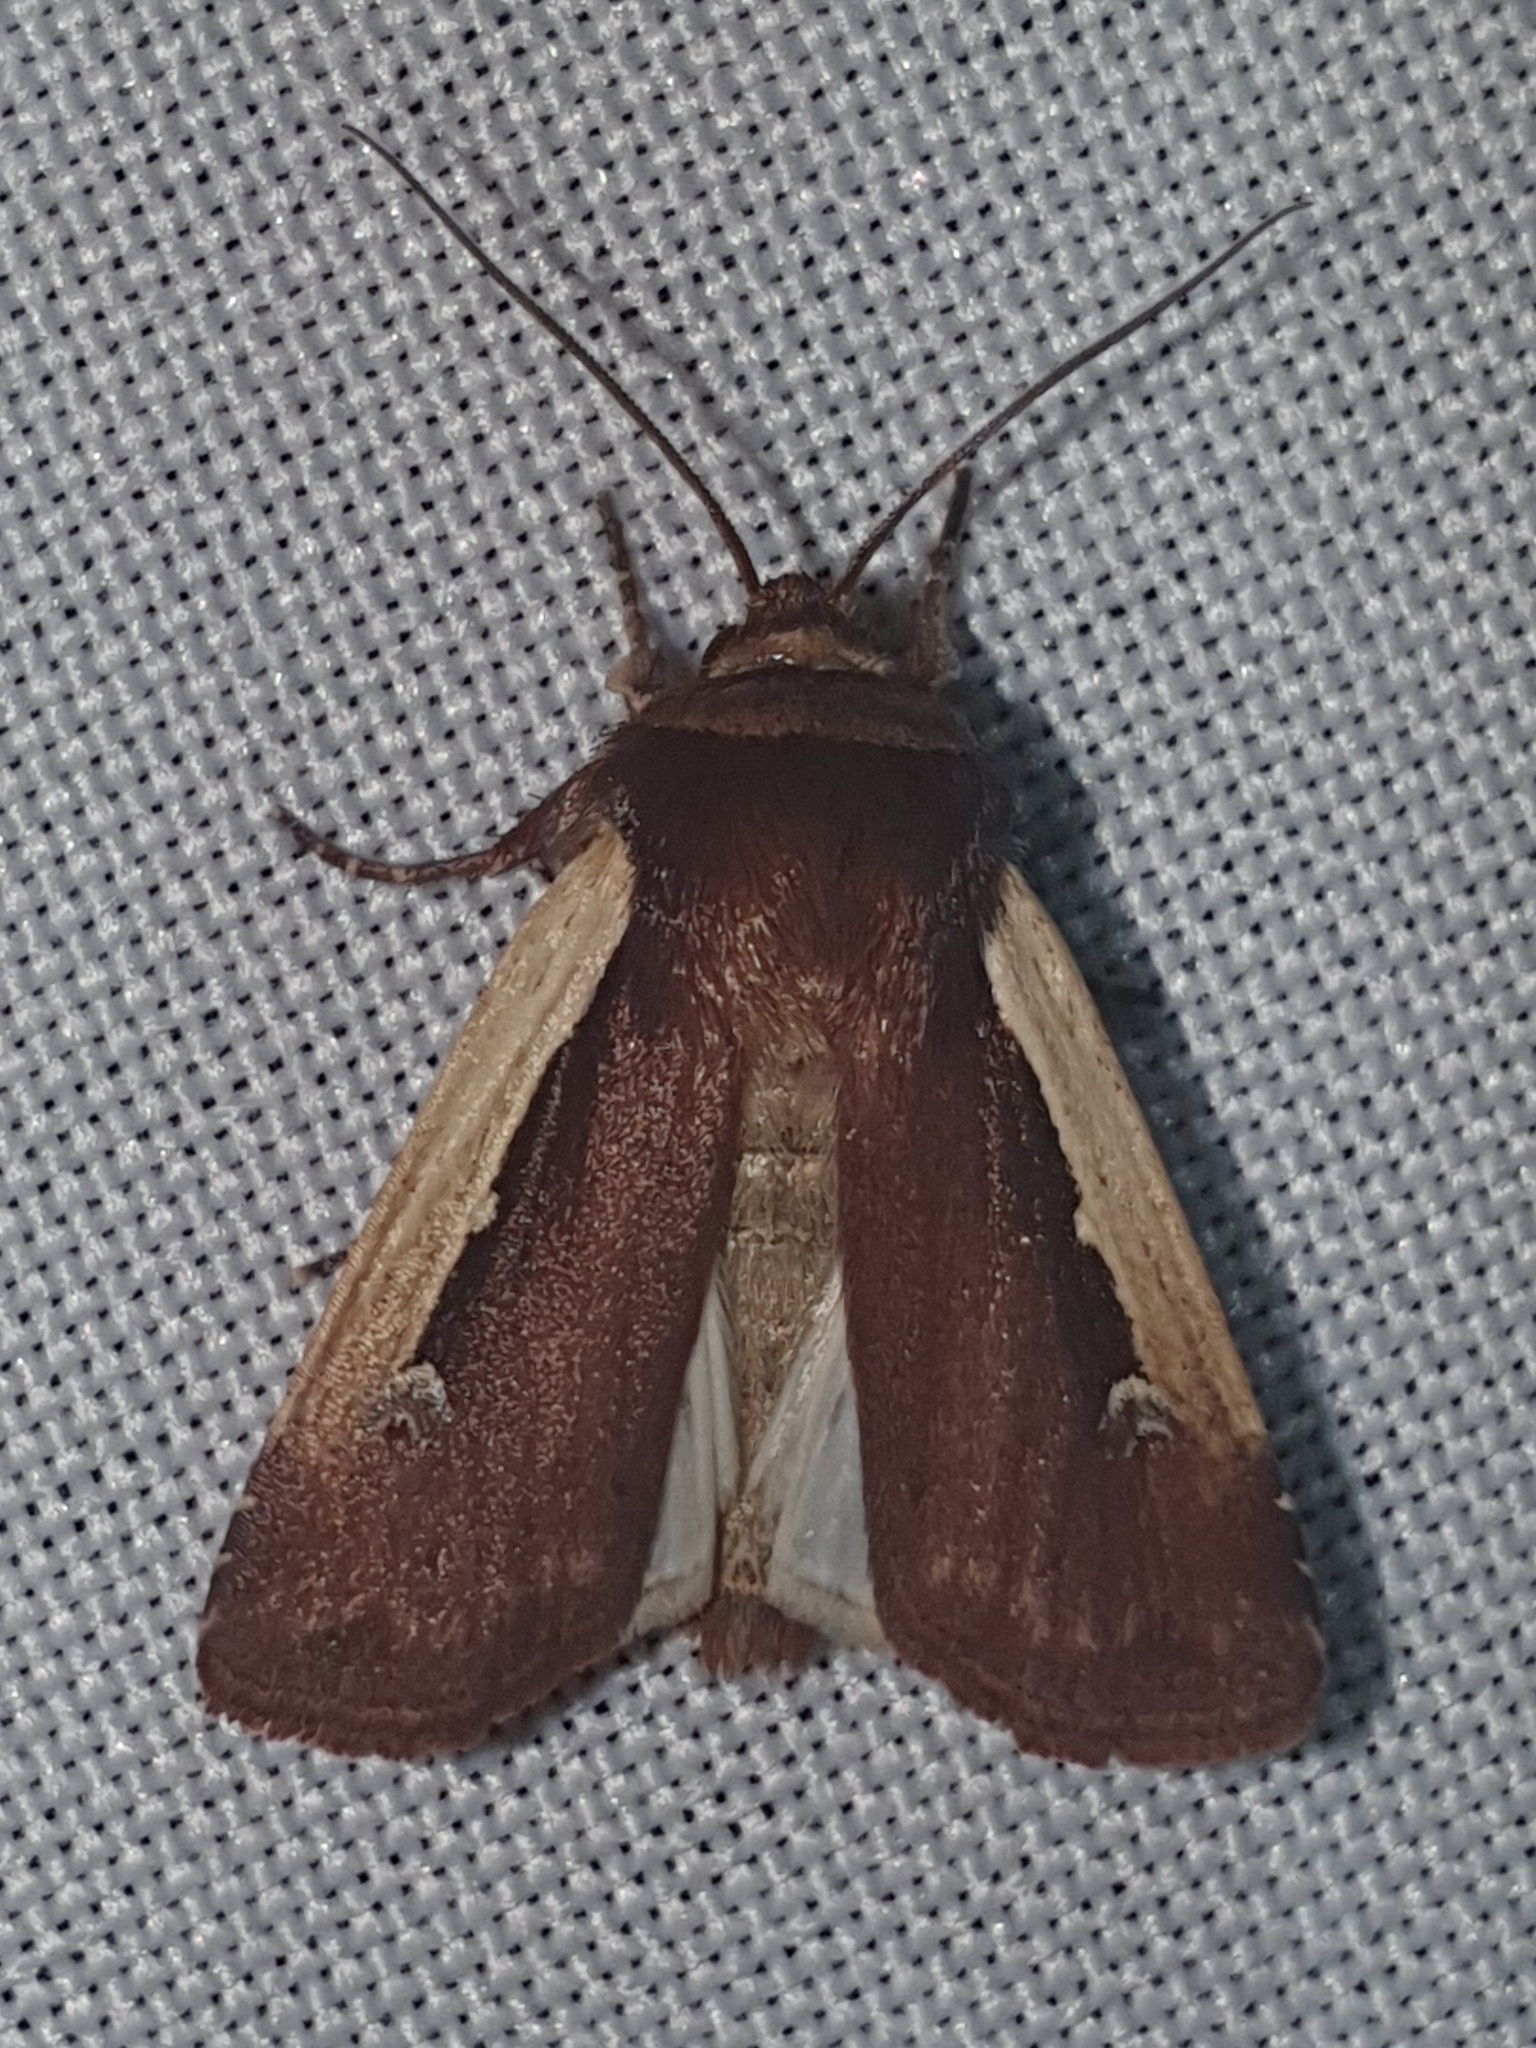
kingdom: Animalia
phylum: Arthropoda
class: Insecta
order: Lepidoptera
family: Noctuidae
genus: Ochropleura
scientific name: Ochropleura plecta
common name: Flame shoulder
